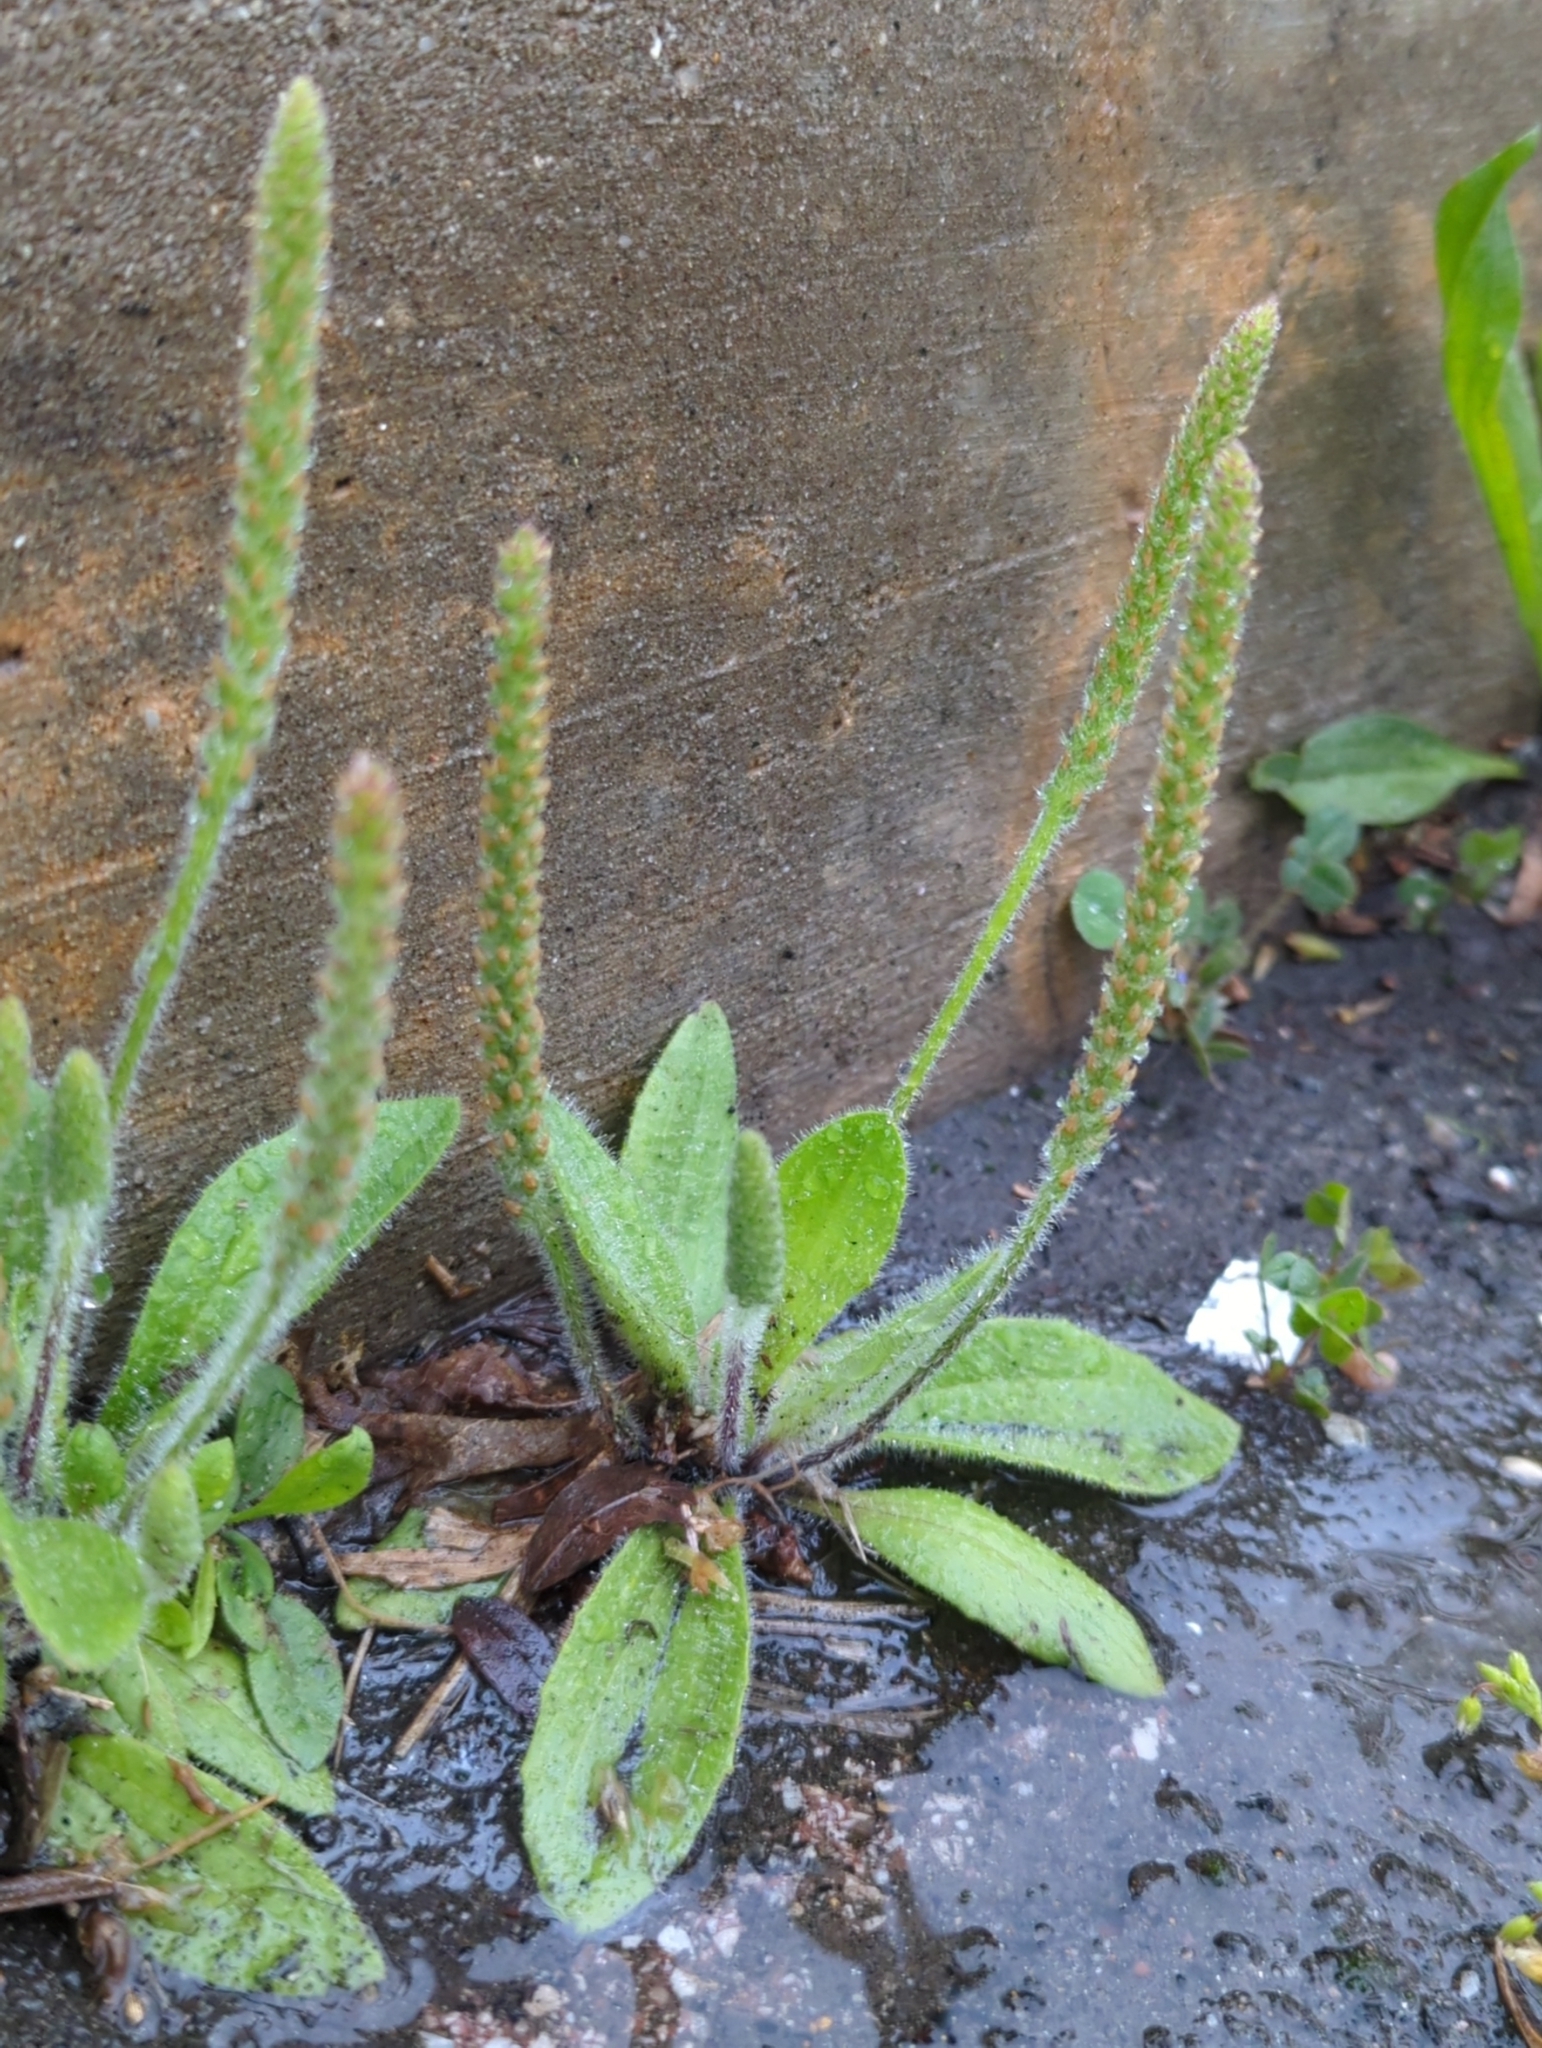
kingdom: Plantae
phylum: Tracheophyta
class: Magnoliopsida
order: Lamiales
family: Plantaginaceae
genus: Plantago
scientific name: Plantago virginica
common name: Hoary plantain
